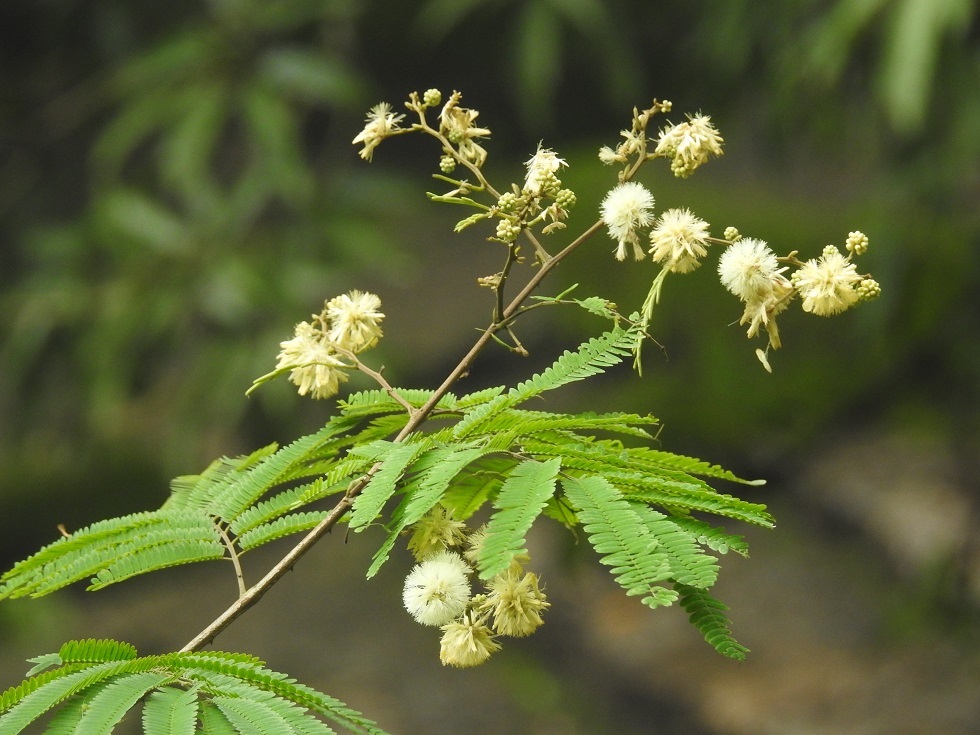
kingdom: Plantae
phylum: Tracheophyta
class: Magnoliopsida
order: Fabales
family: Fabaceae
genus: Mimosa
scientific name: Mimosa acantholoba
